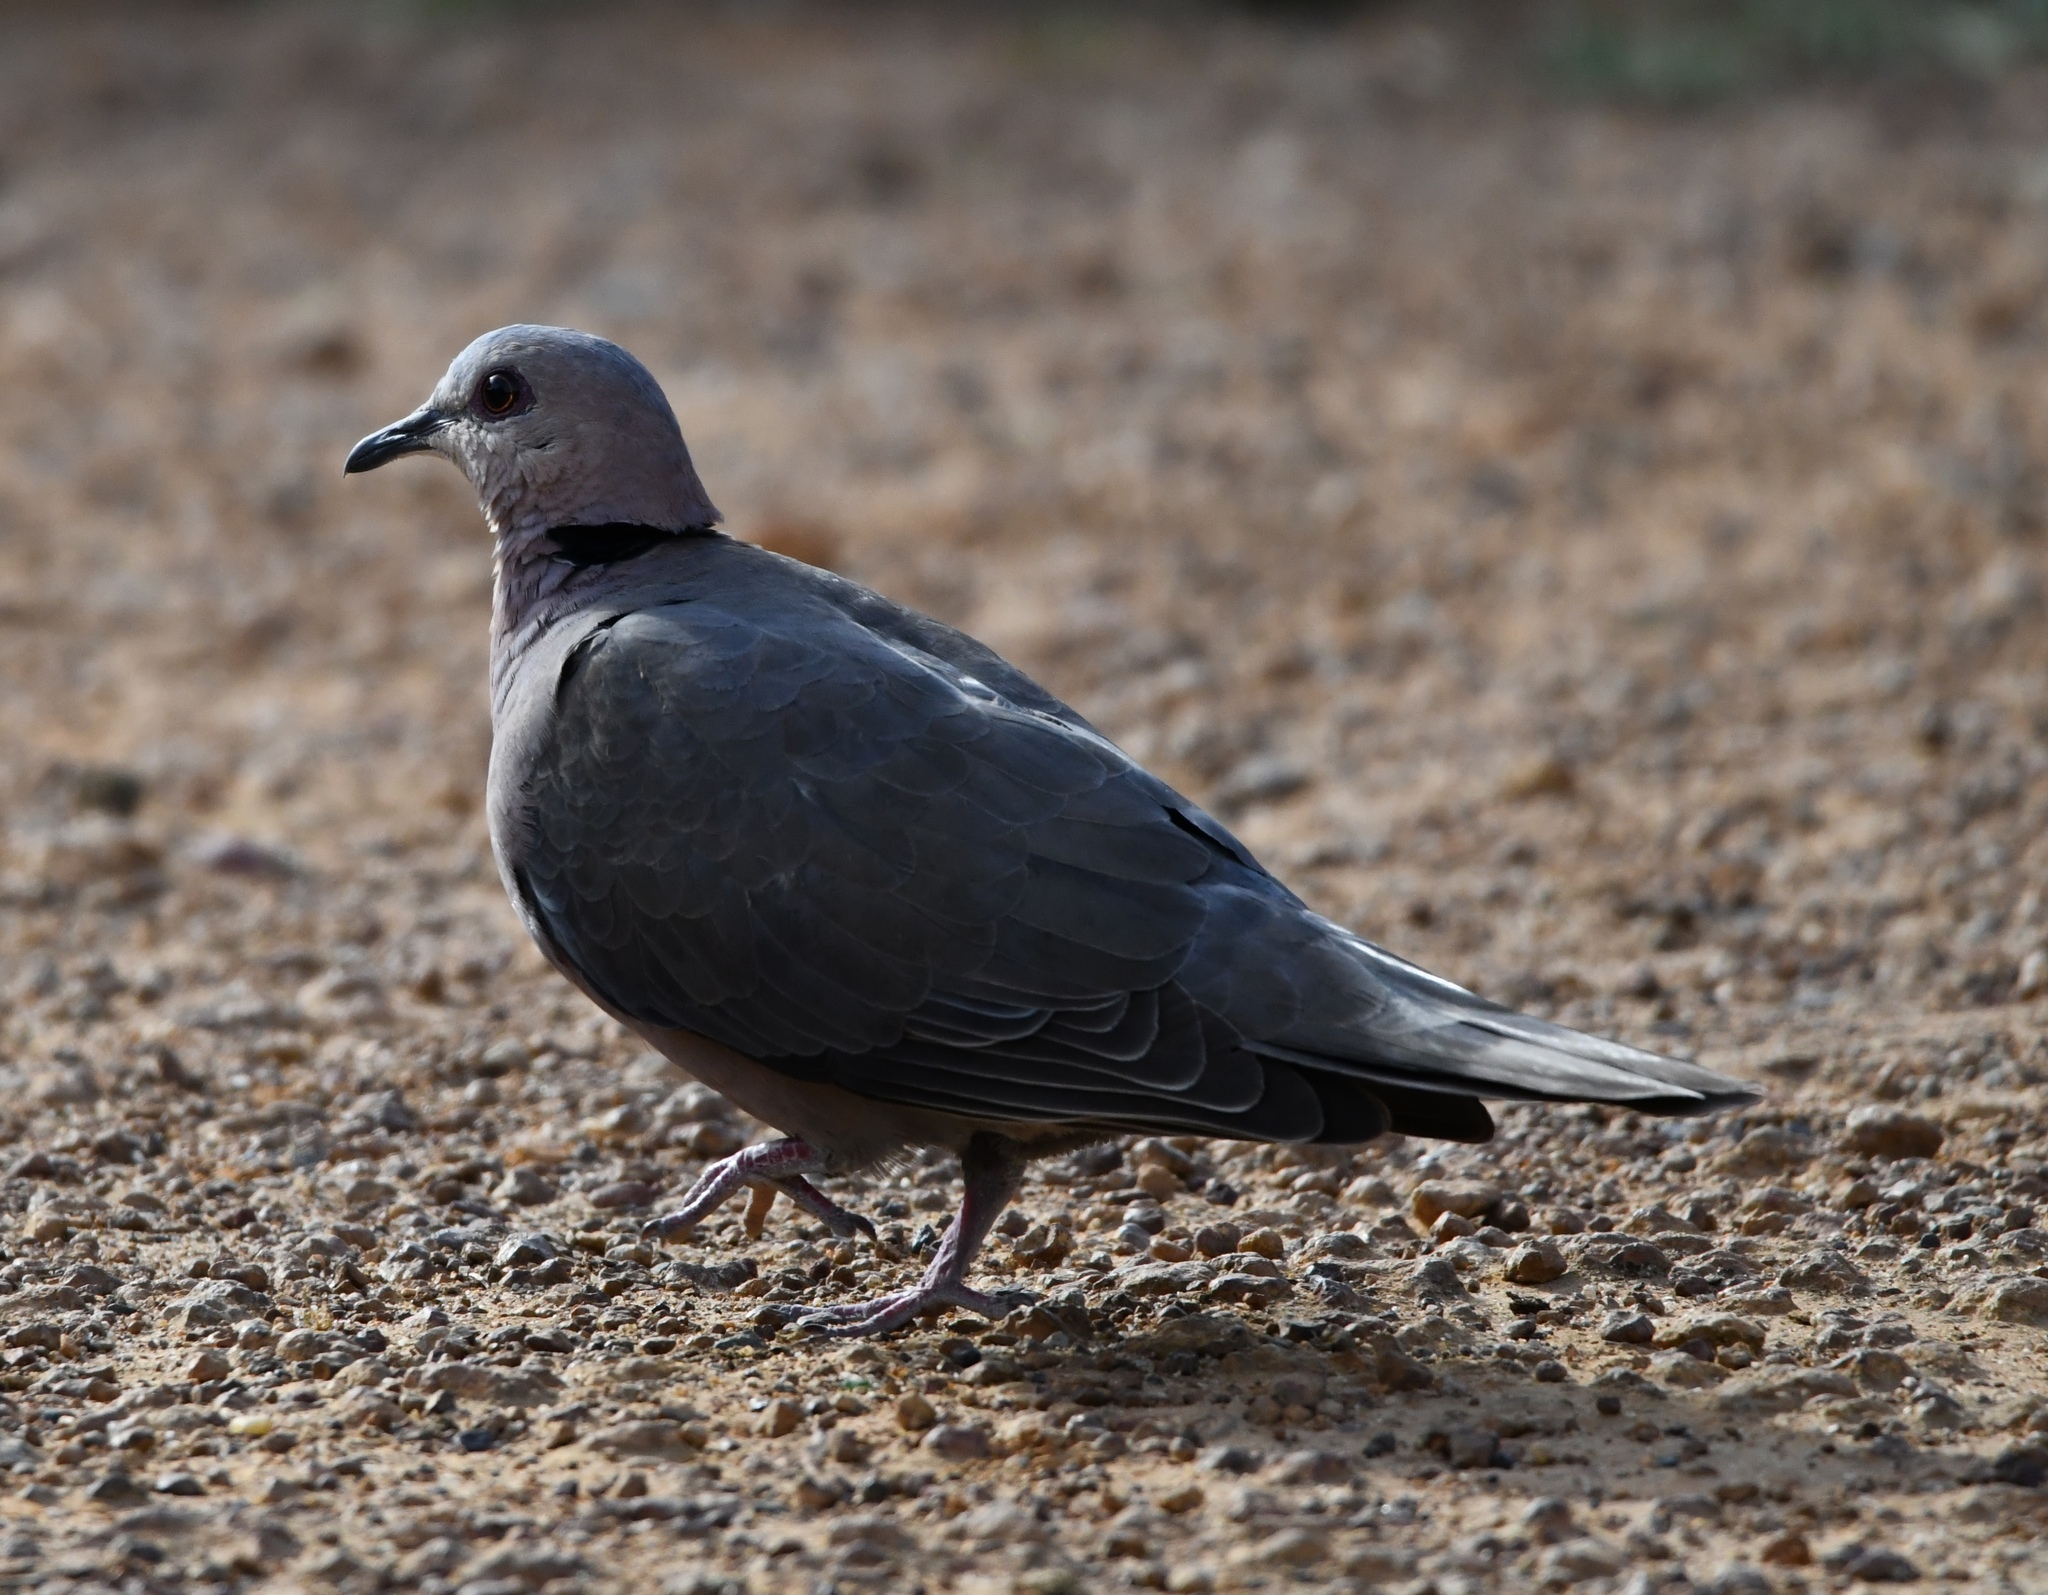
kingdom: Animalia
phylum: Chordata
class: Aves
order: Columbiformes
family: Columbidae
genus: Streptopelia
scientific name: Streptopelia semitorquata
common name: Red-eyed dove
